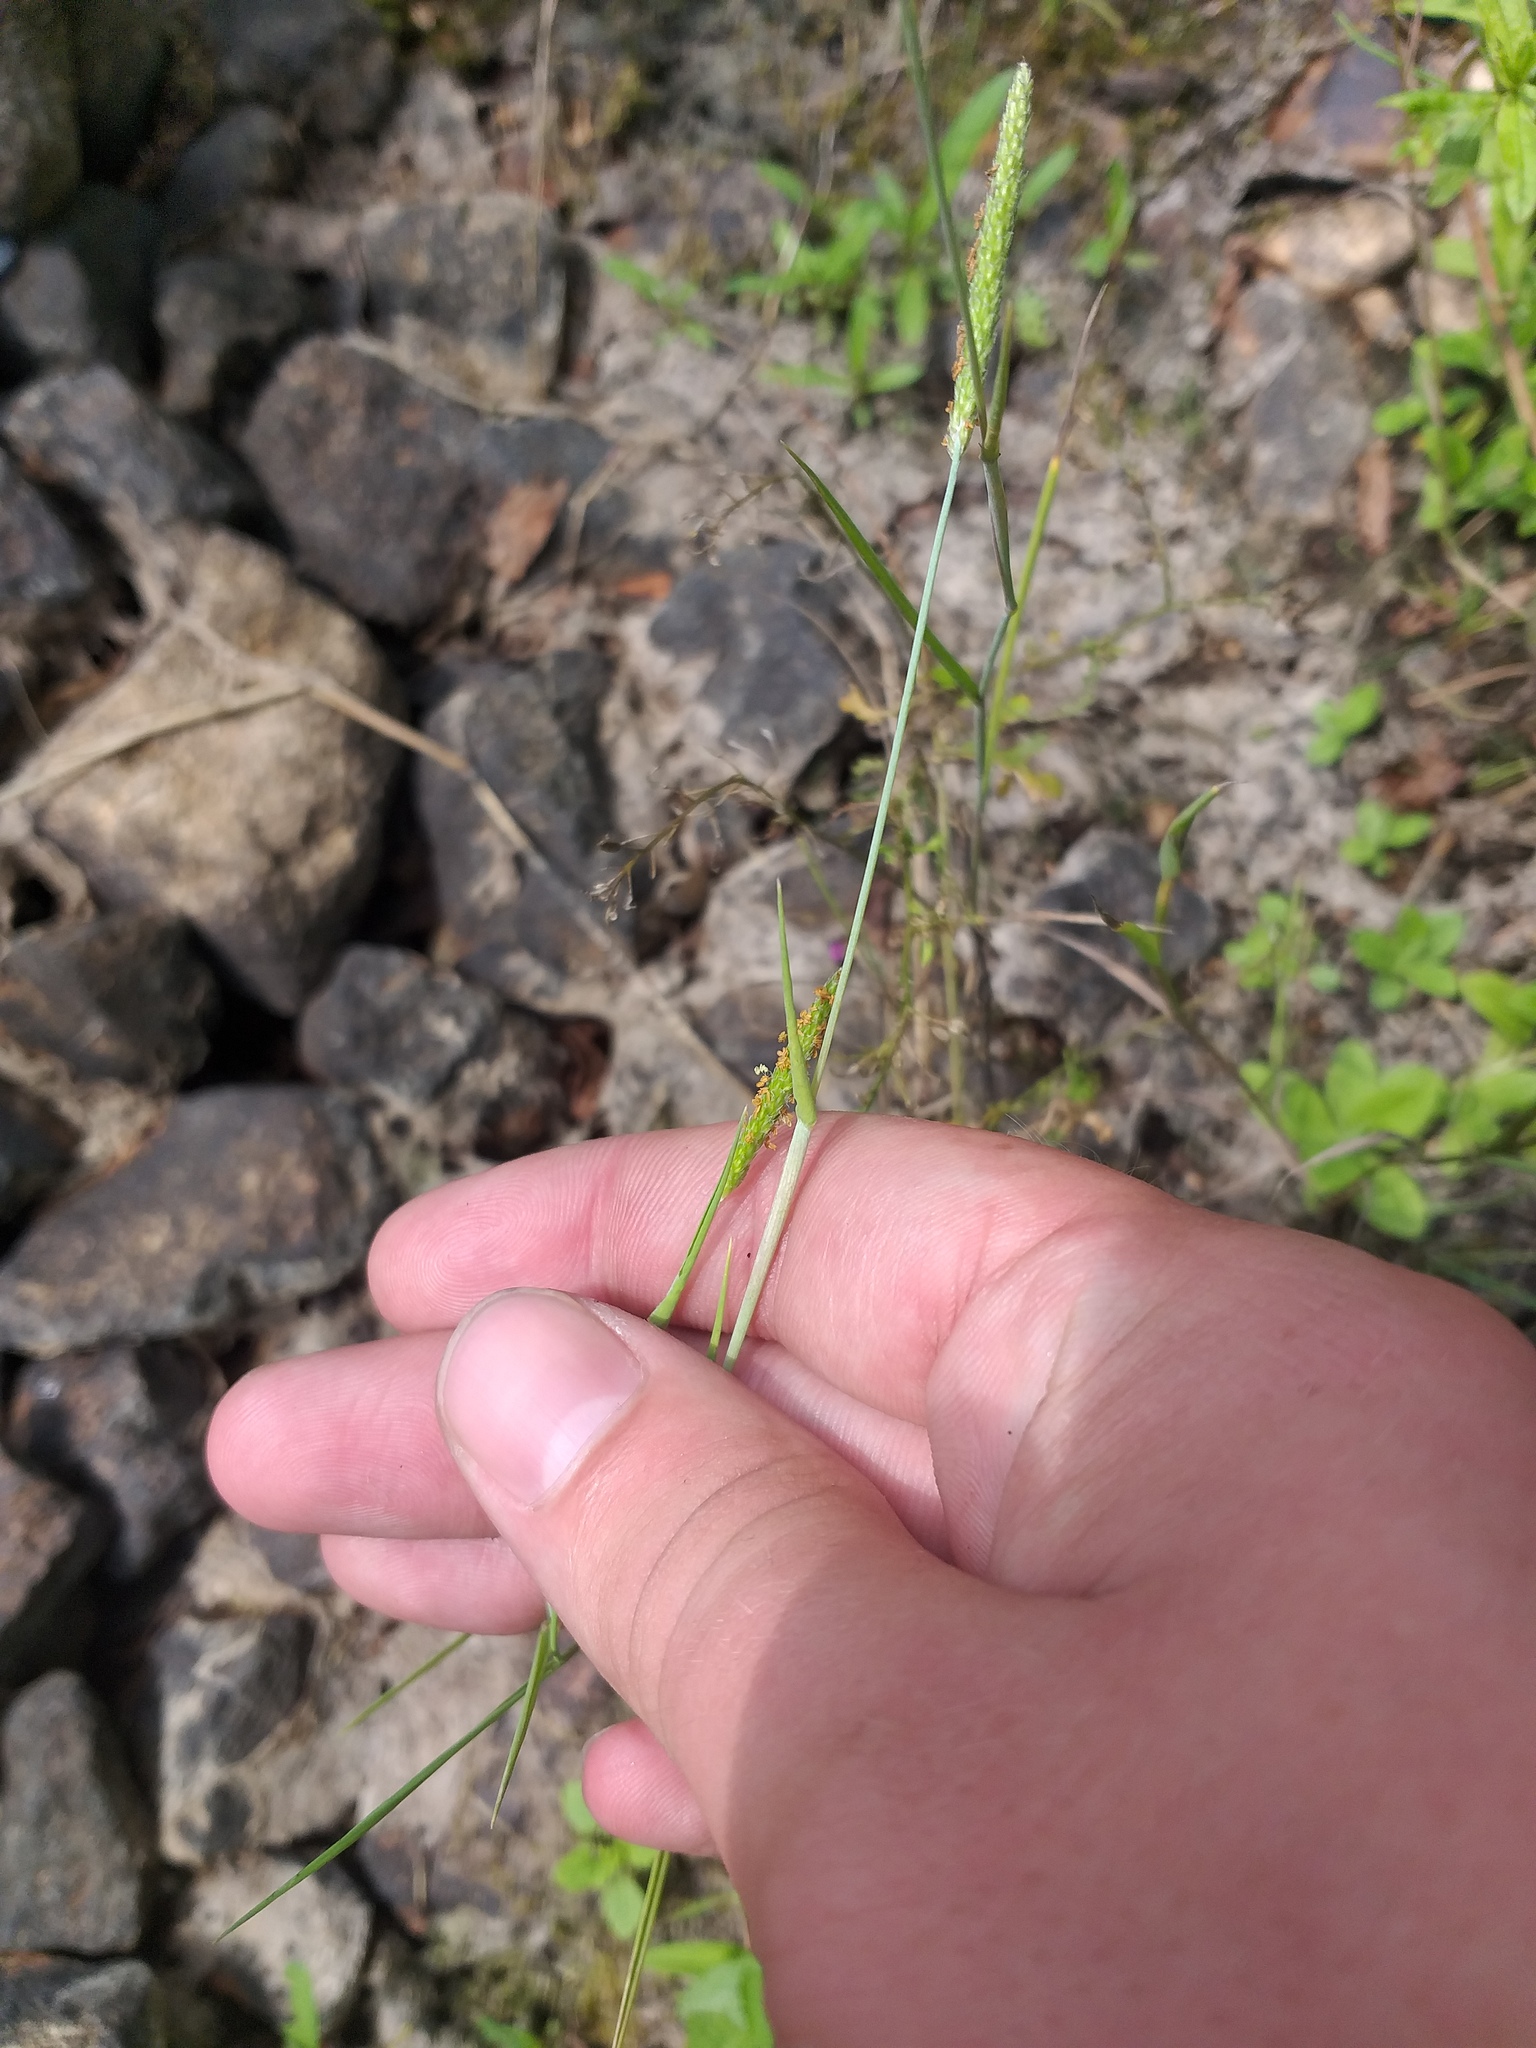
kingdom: Plantae
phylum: Tracheophyta
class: Liliopsida
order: Poales
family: Poaceae
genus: Alopecurus
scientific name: Alopecurus aequalis
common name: Orange foxtail
